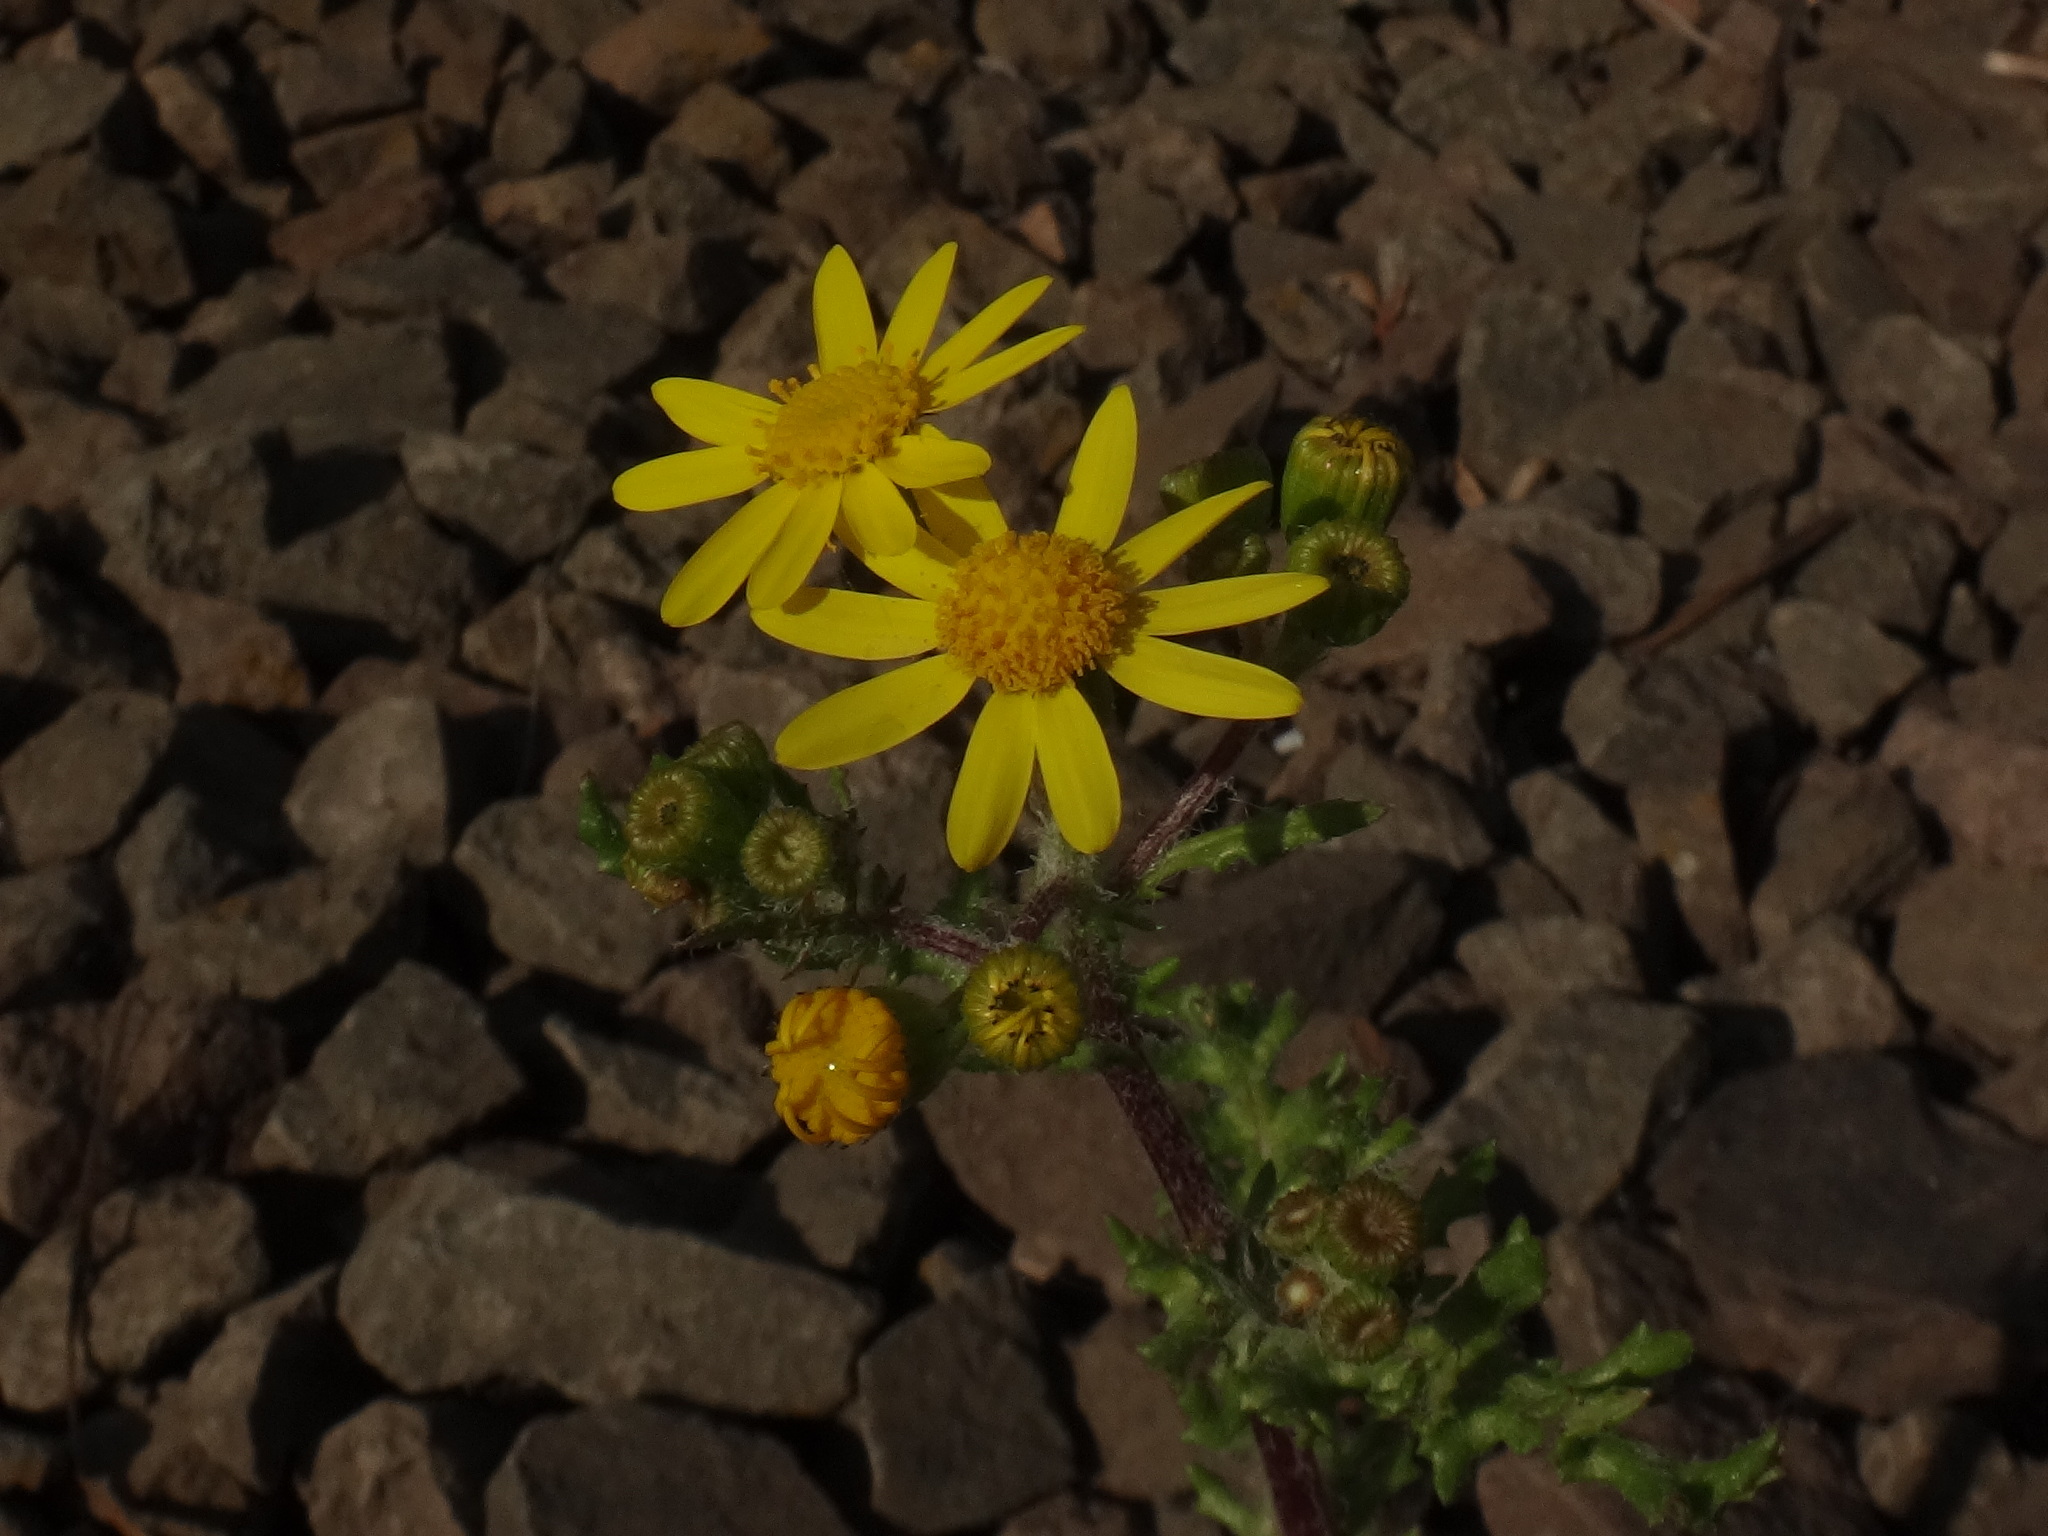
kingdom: Plantae
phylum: Tracheophyta
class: Magnoliopsida
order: Asterales
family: Asteraceae
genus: Senecio
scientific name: Senecio vernalis
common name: Eastern groundsel
